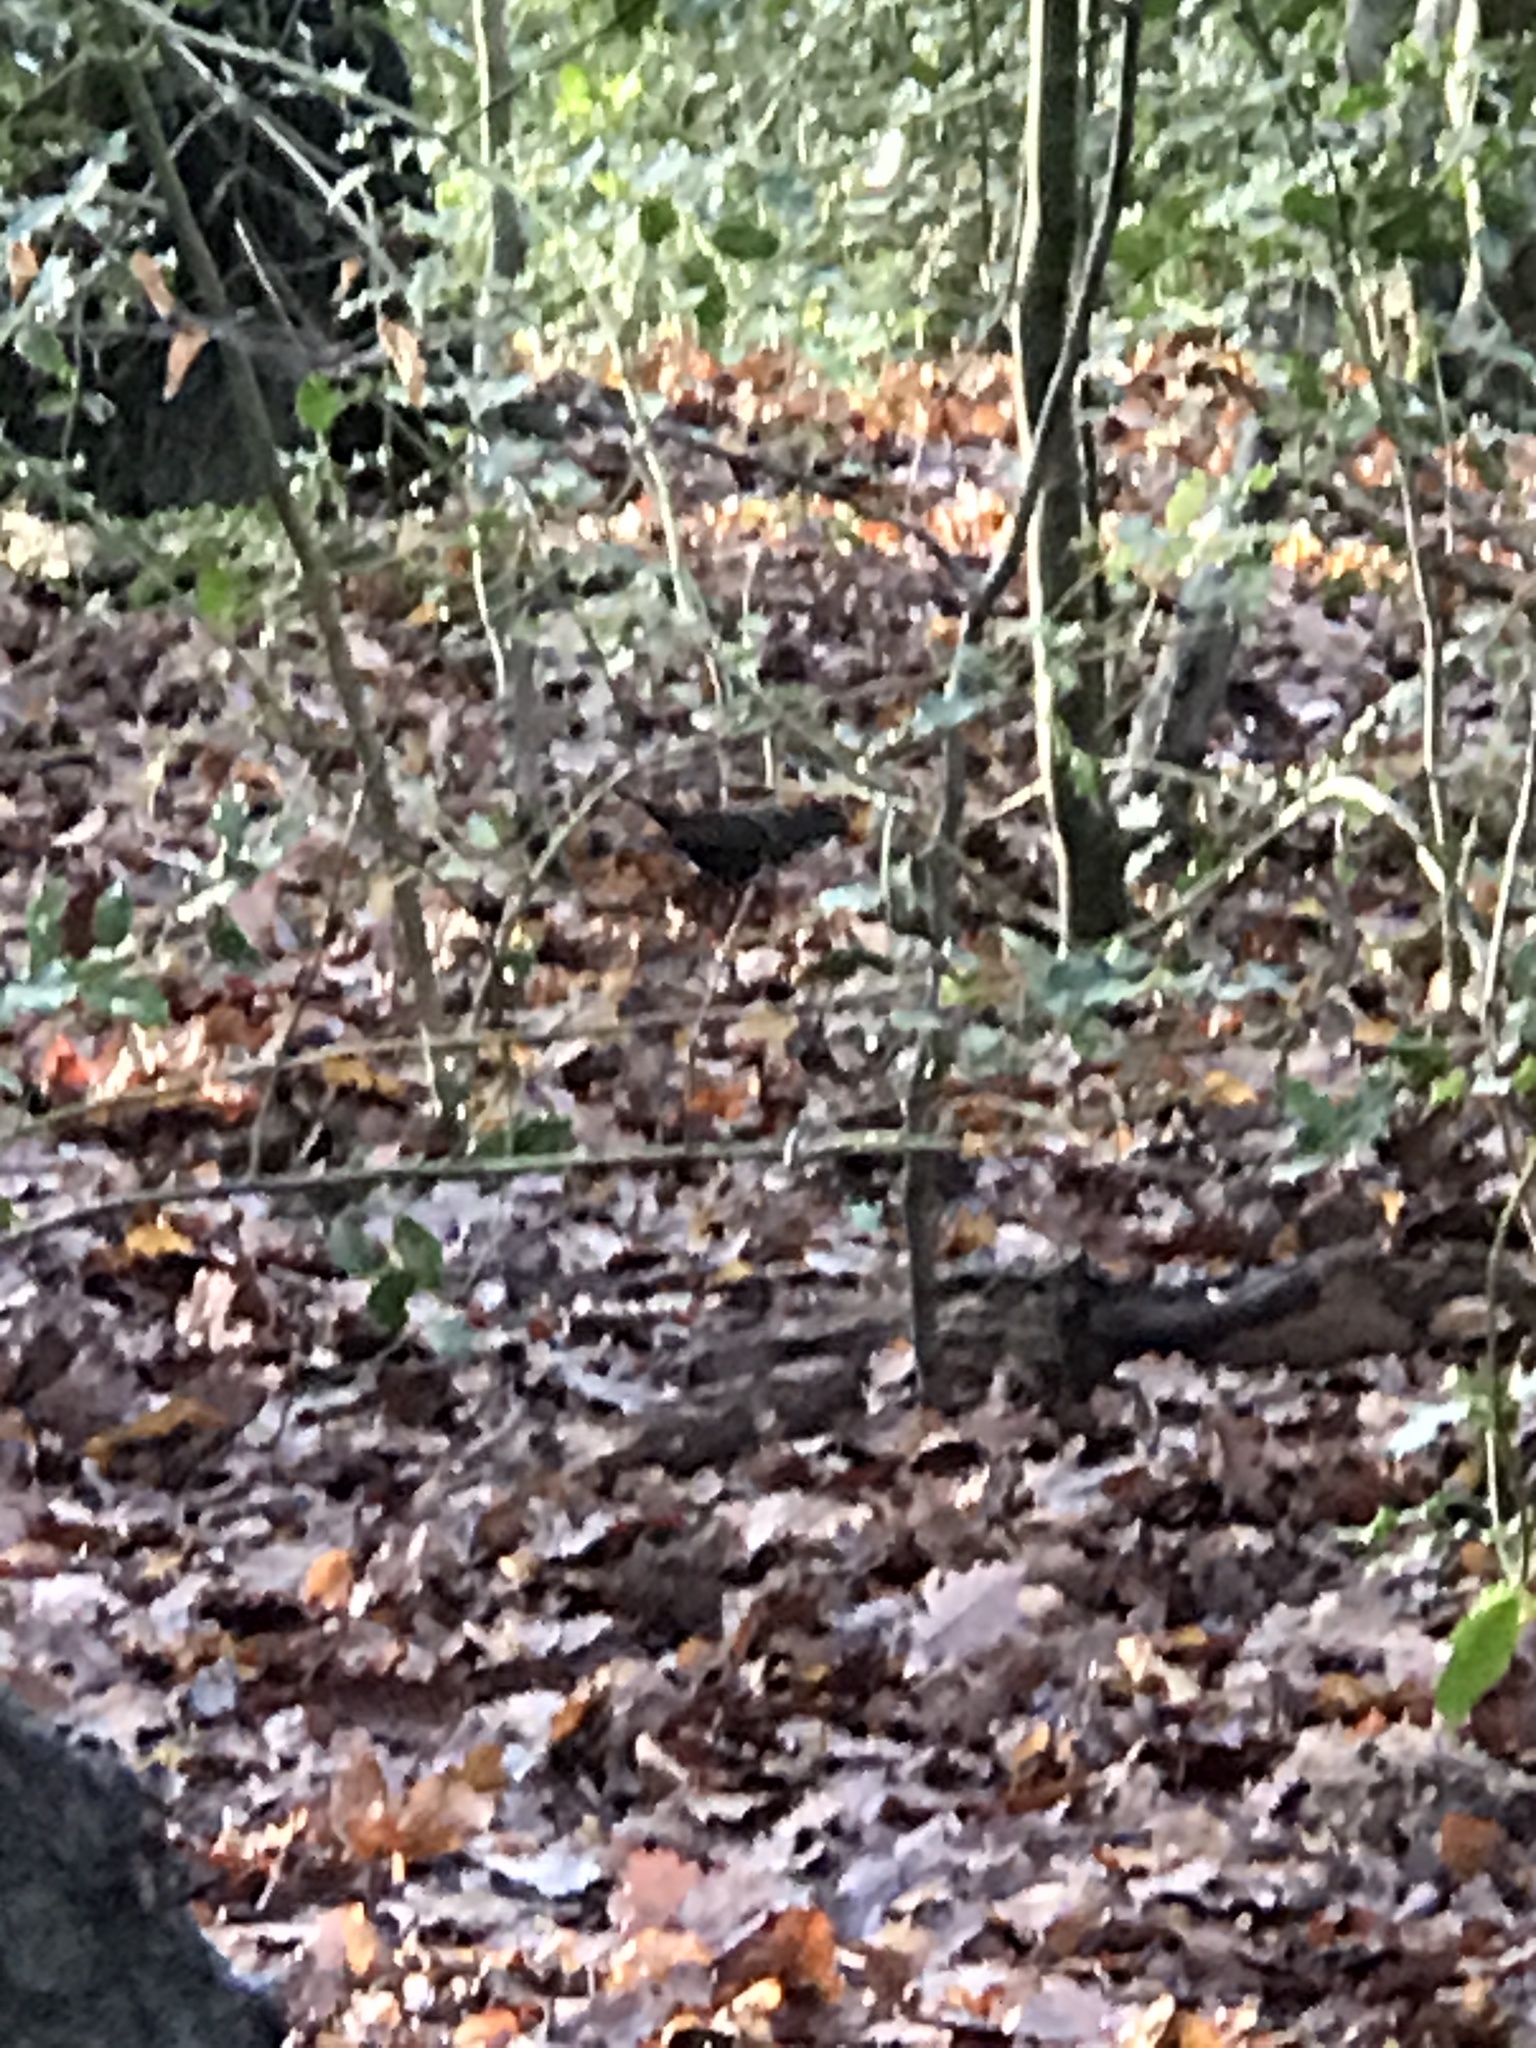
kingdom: Animalia
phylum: Chordata
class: Aves
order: Passeriformes
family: Turdidae
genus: Turdus
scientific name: Turdus merula
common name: Common blackbird
